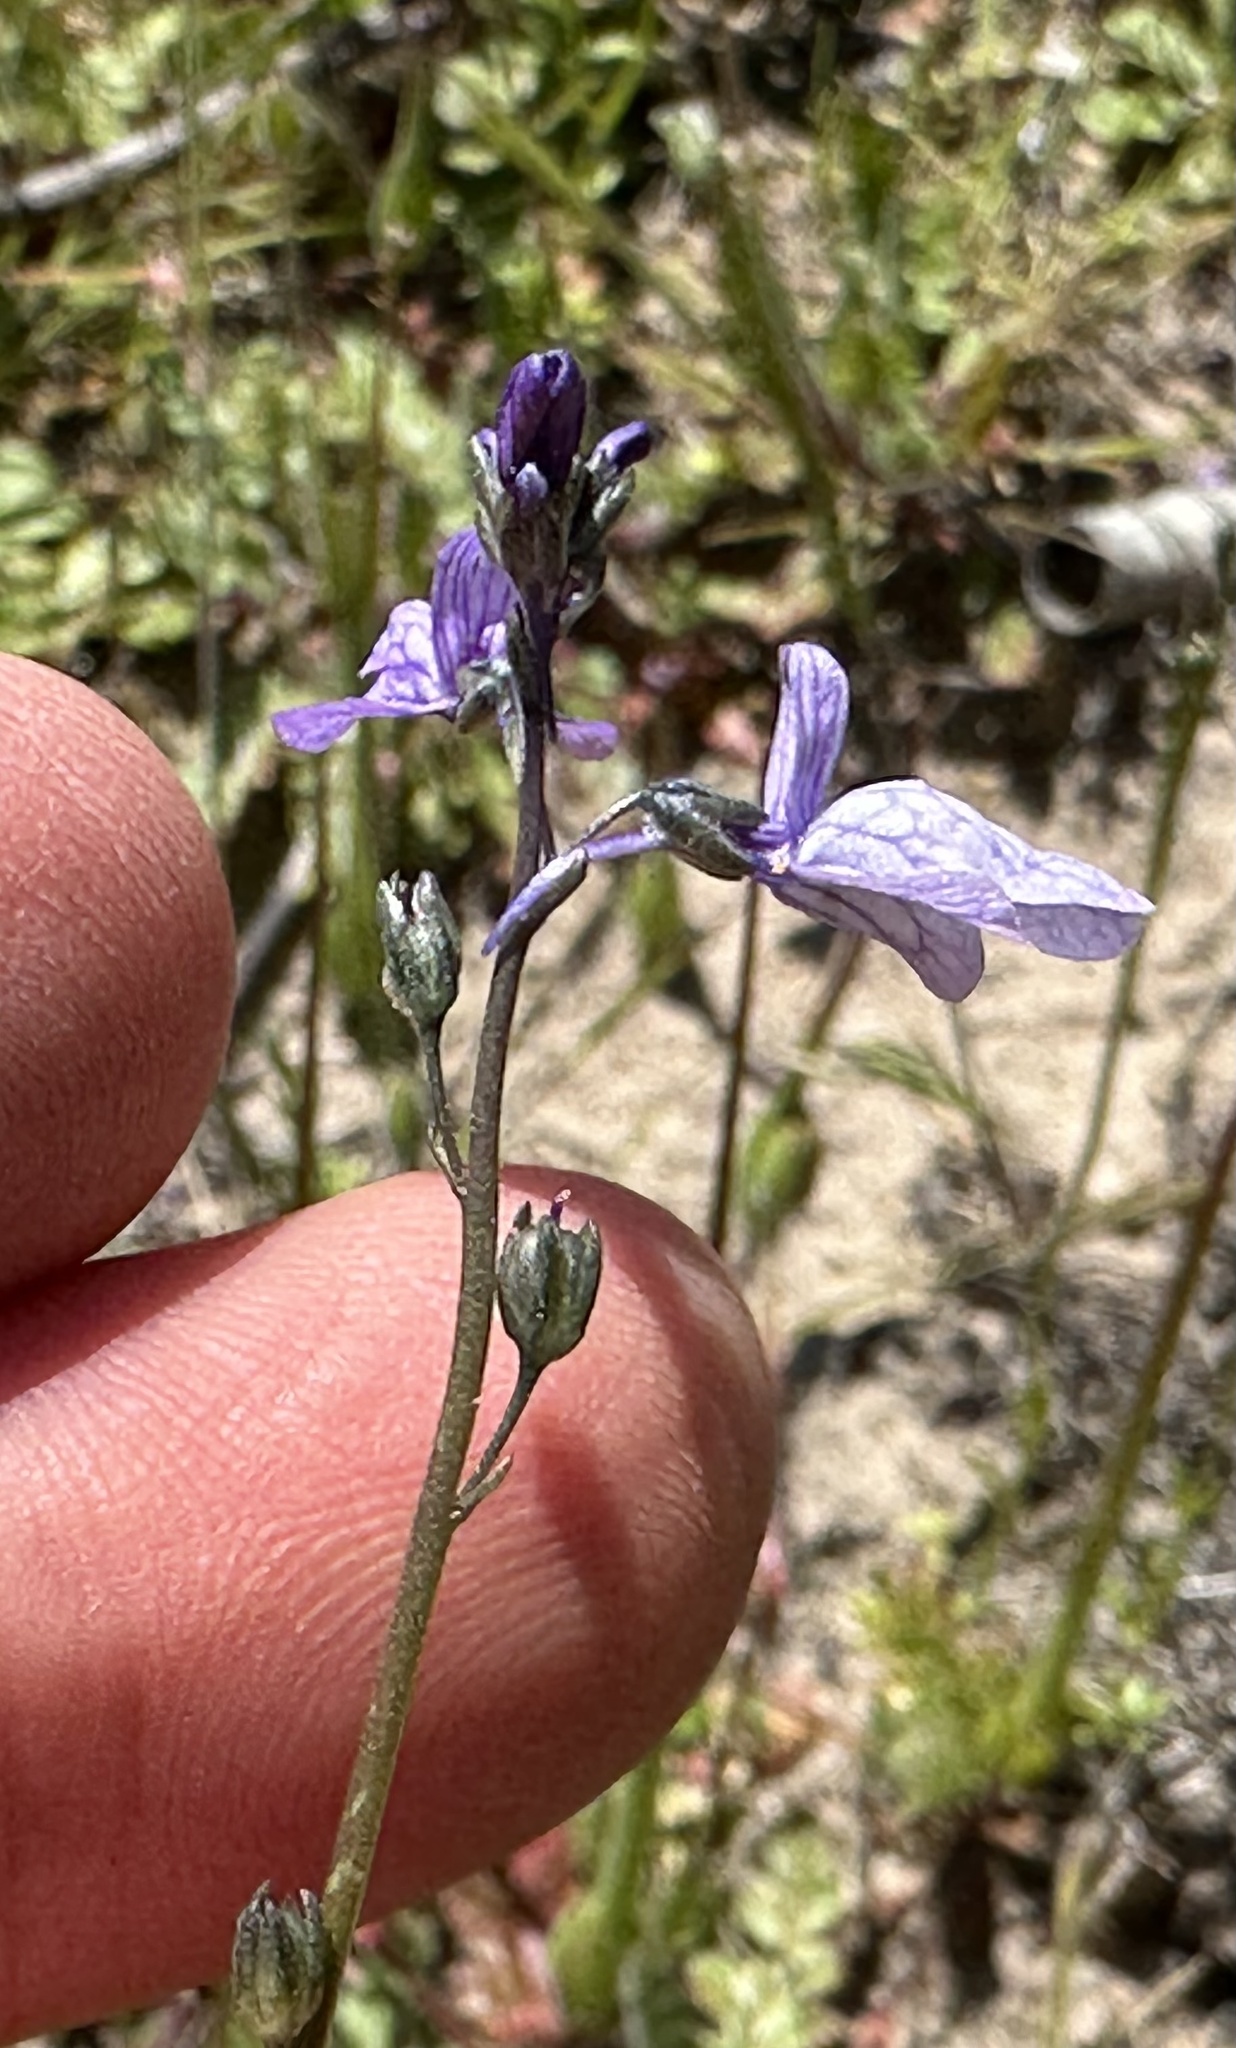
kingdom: Plantae
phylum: Tracheophyta
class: Magnoliopsida
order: Lamiales
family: Plantaginaceae
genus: Nuttallanthus
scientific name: Nuttallanthus texanus
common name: Texas toadflax
